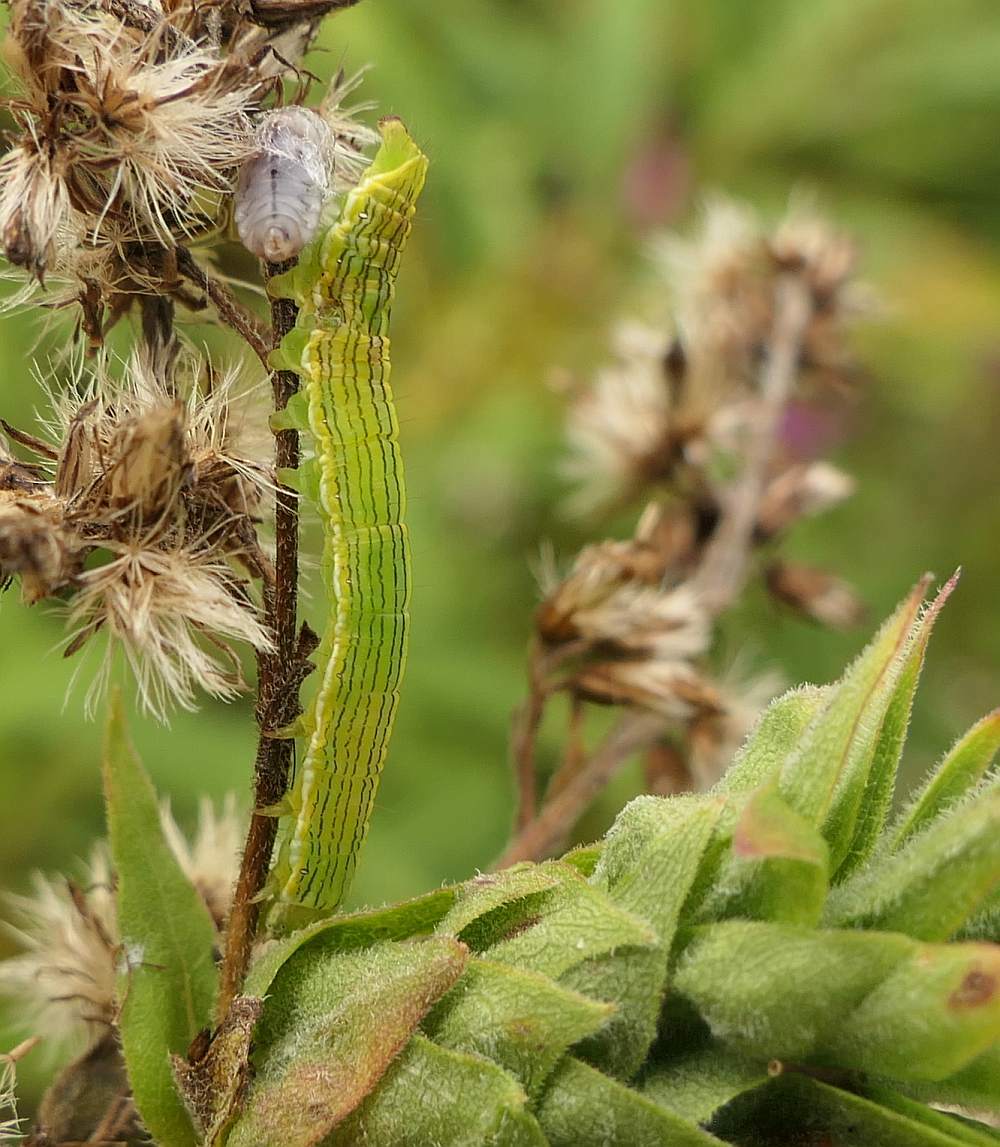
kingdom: Animalia
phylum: Arthropoda
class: Insecta
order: Lepidoptera
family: Noctuidae
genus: Cucullia
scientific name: Cucullia asteroides
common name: Asteroid moth
